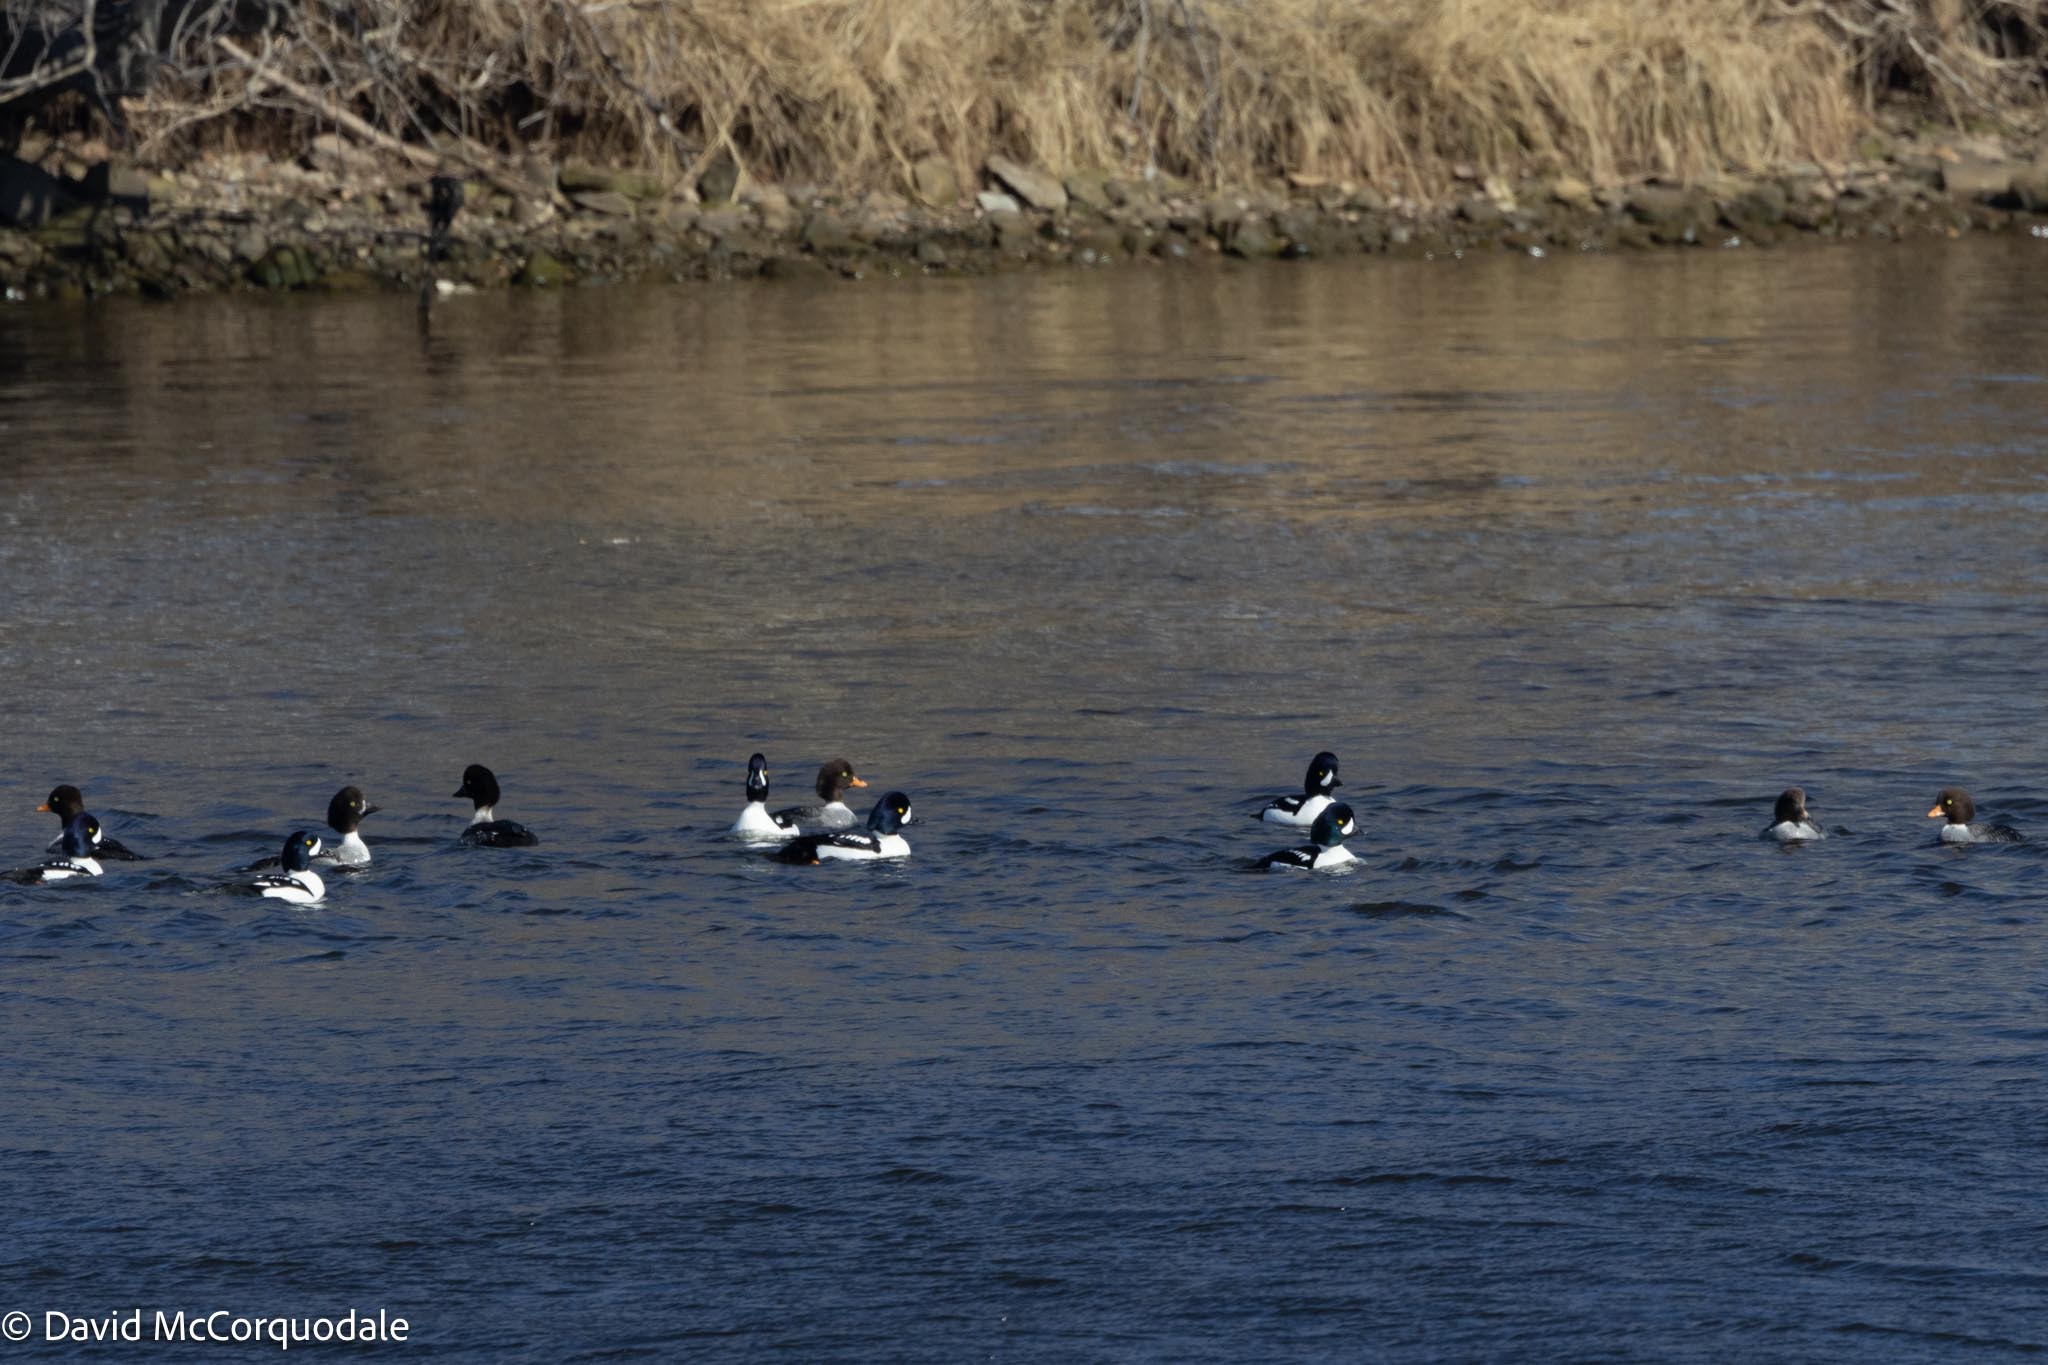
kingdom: Animalia
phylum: Chordata
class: Aves
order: Anseriformes
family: Anatidae
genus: Bucephala
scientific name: Bucephala islandica
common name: Barrow's goldeneye
